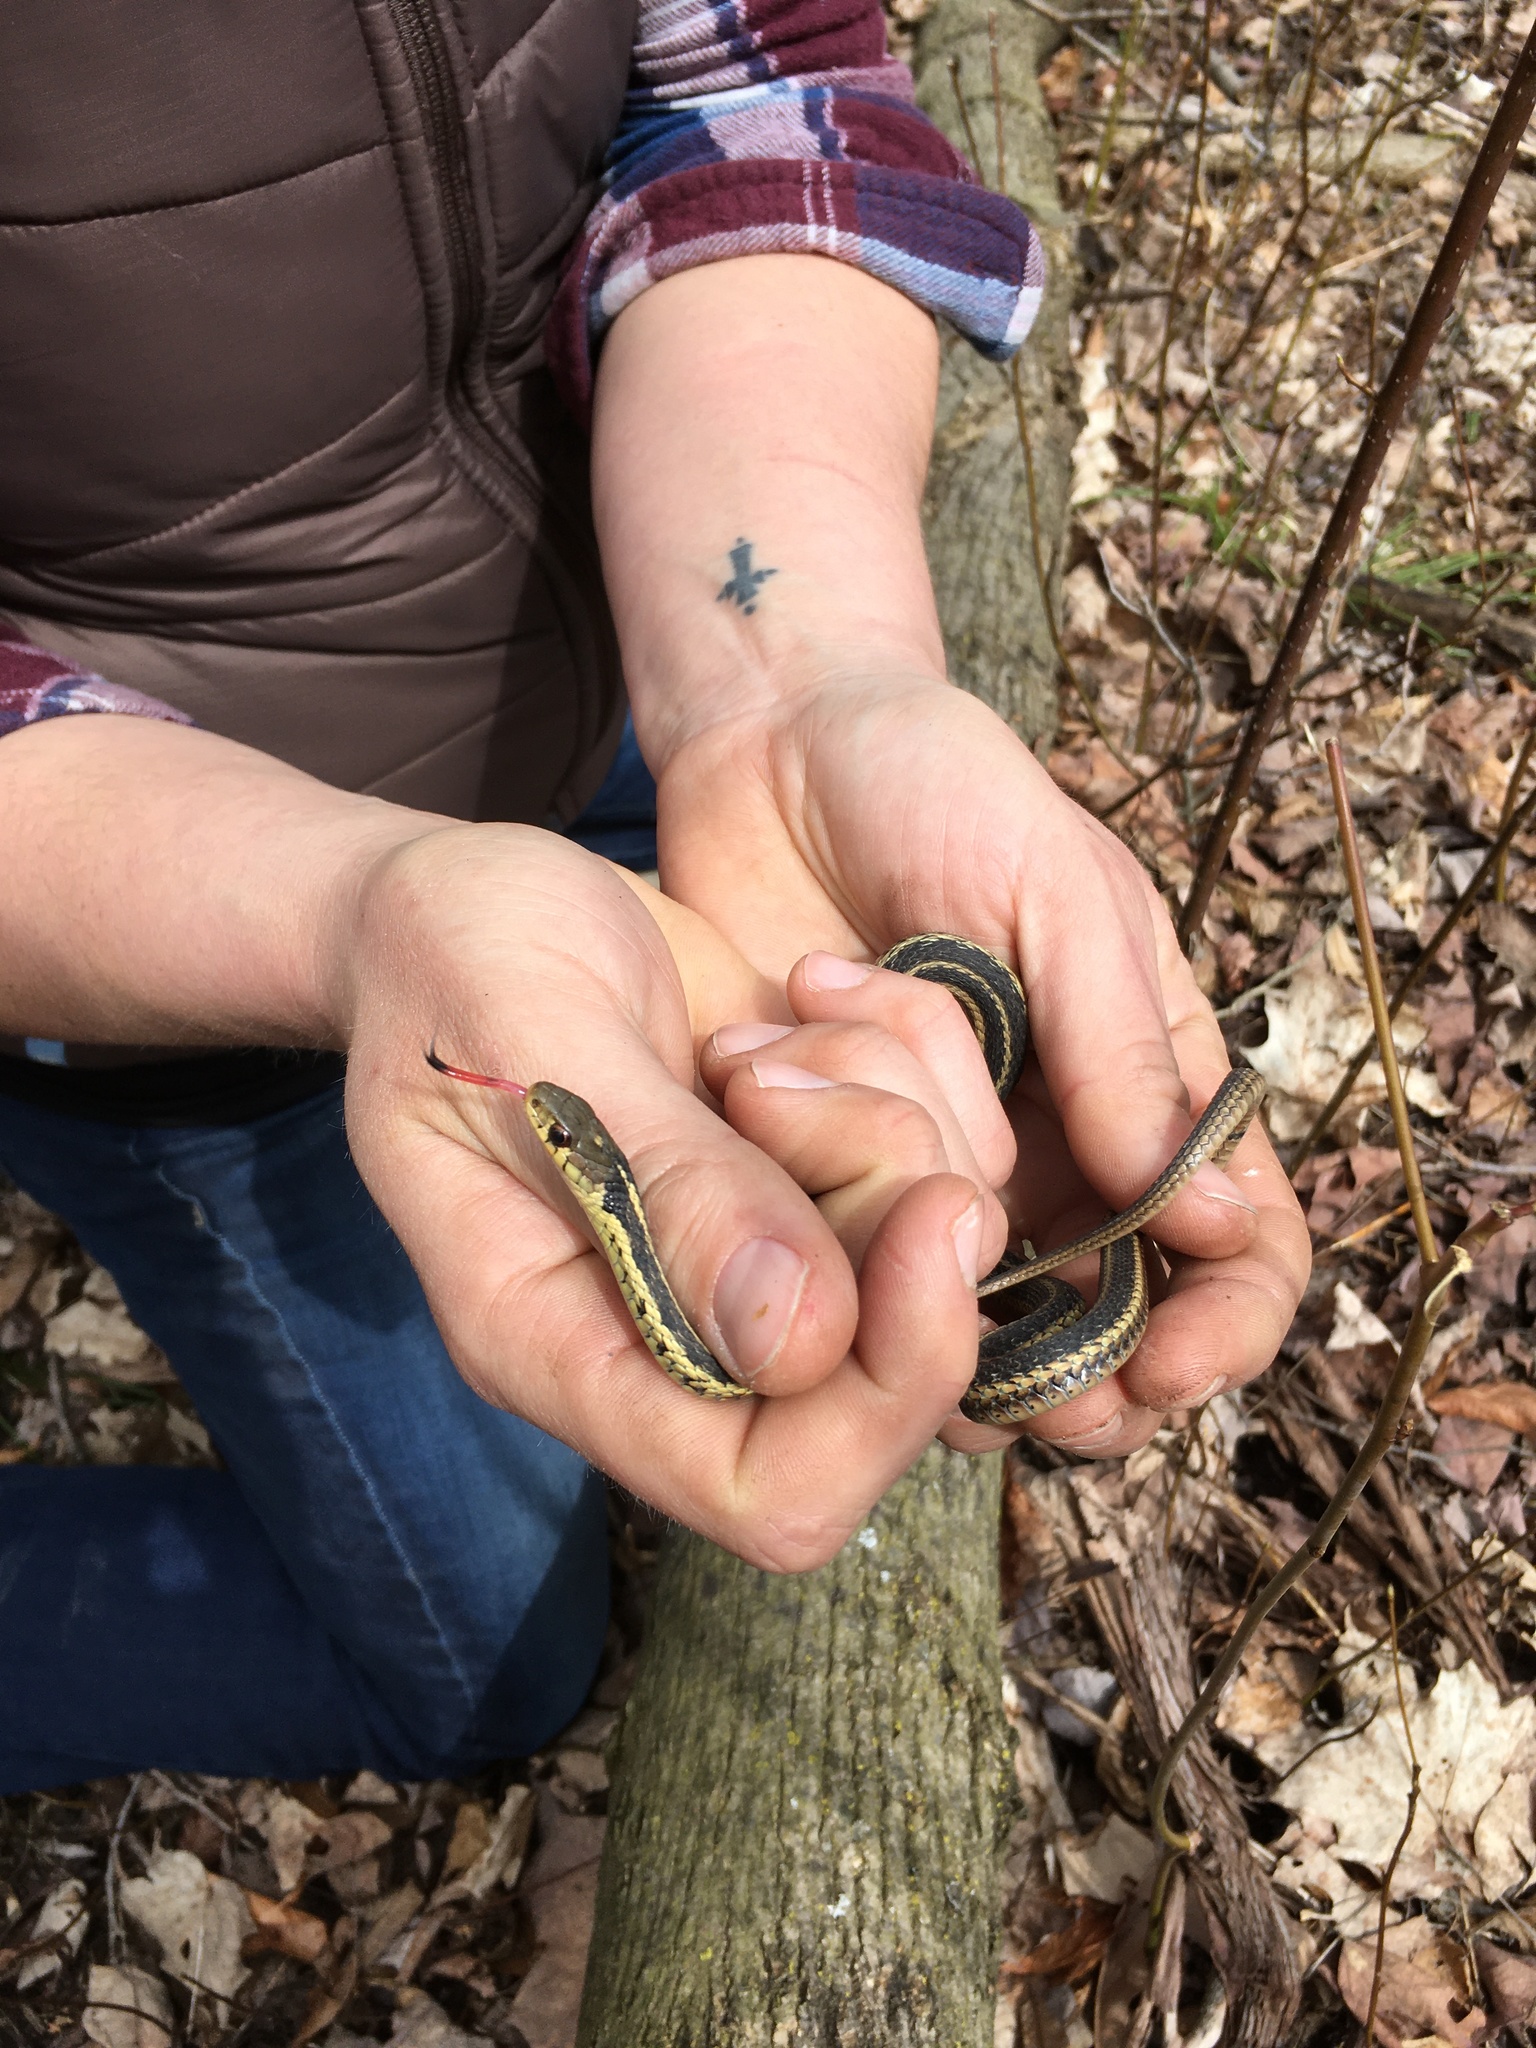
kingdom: Animalia
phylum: Chordata
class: Squamata
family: Colubridae
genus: Thamnophis
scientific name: Thamnophis sirtalis
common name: Common garter snake
